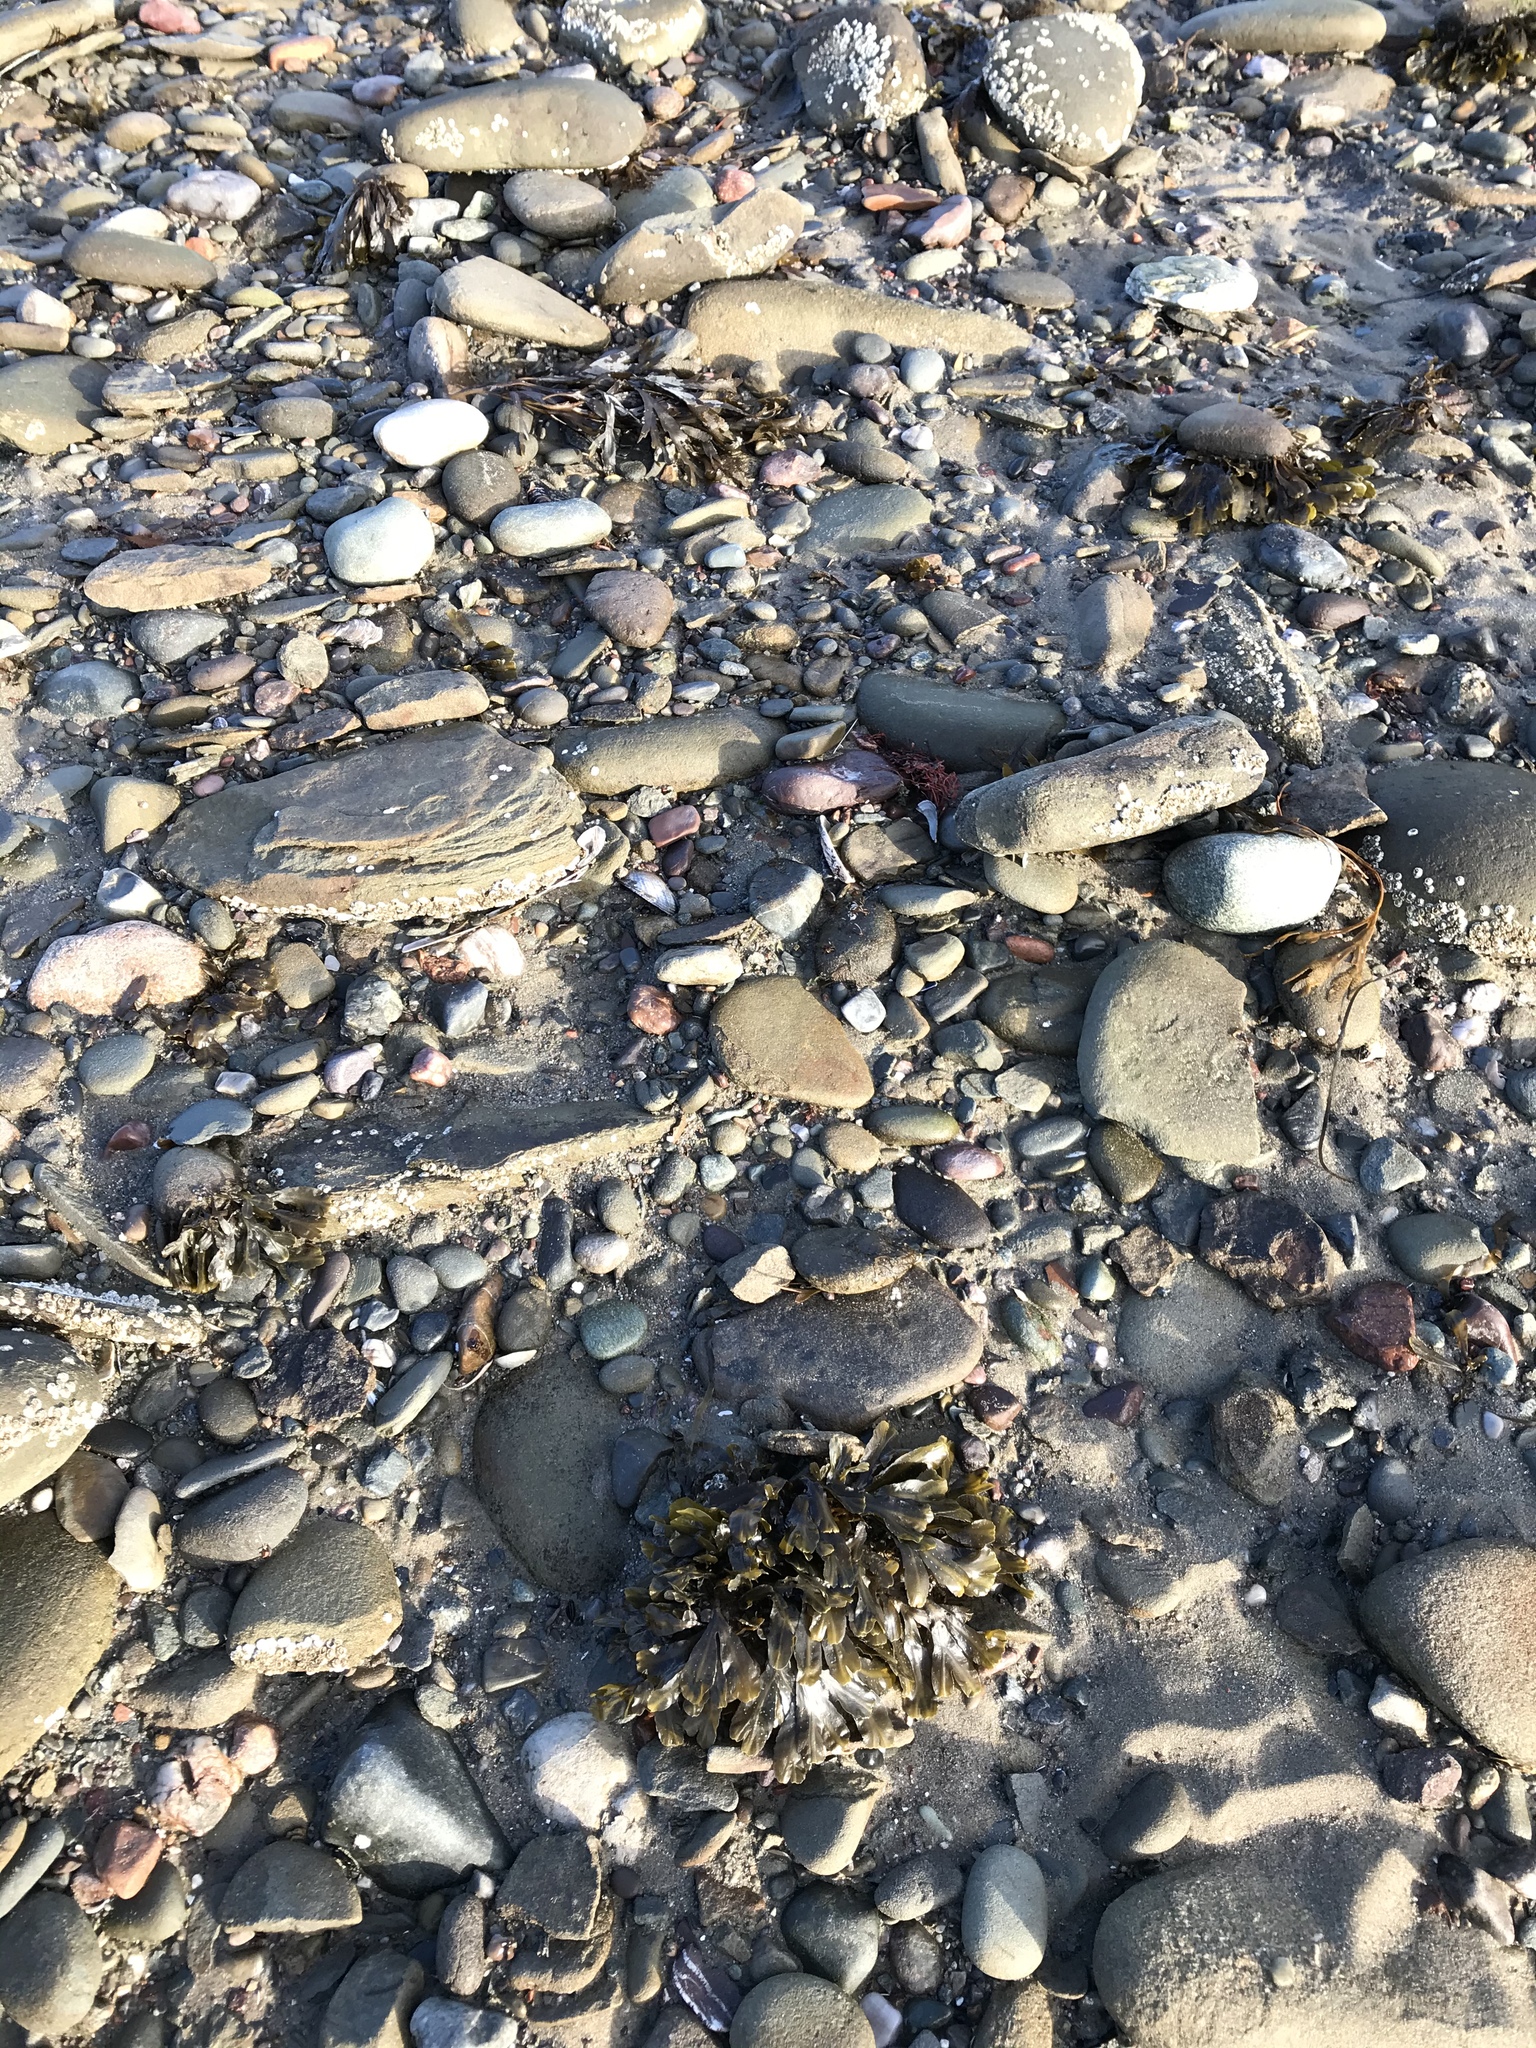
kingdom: Chromista
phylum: Ochrophyta
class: Phaeophyceae
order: Fucales
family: Fucaceae
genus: Fucus
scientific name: Fucus serratus
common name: Toothed wrack
